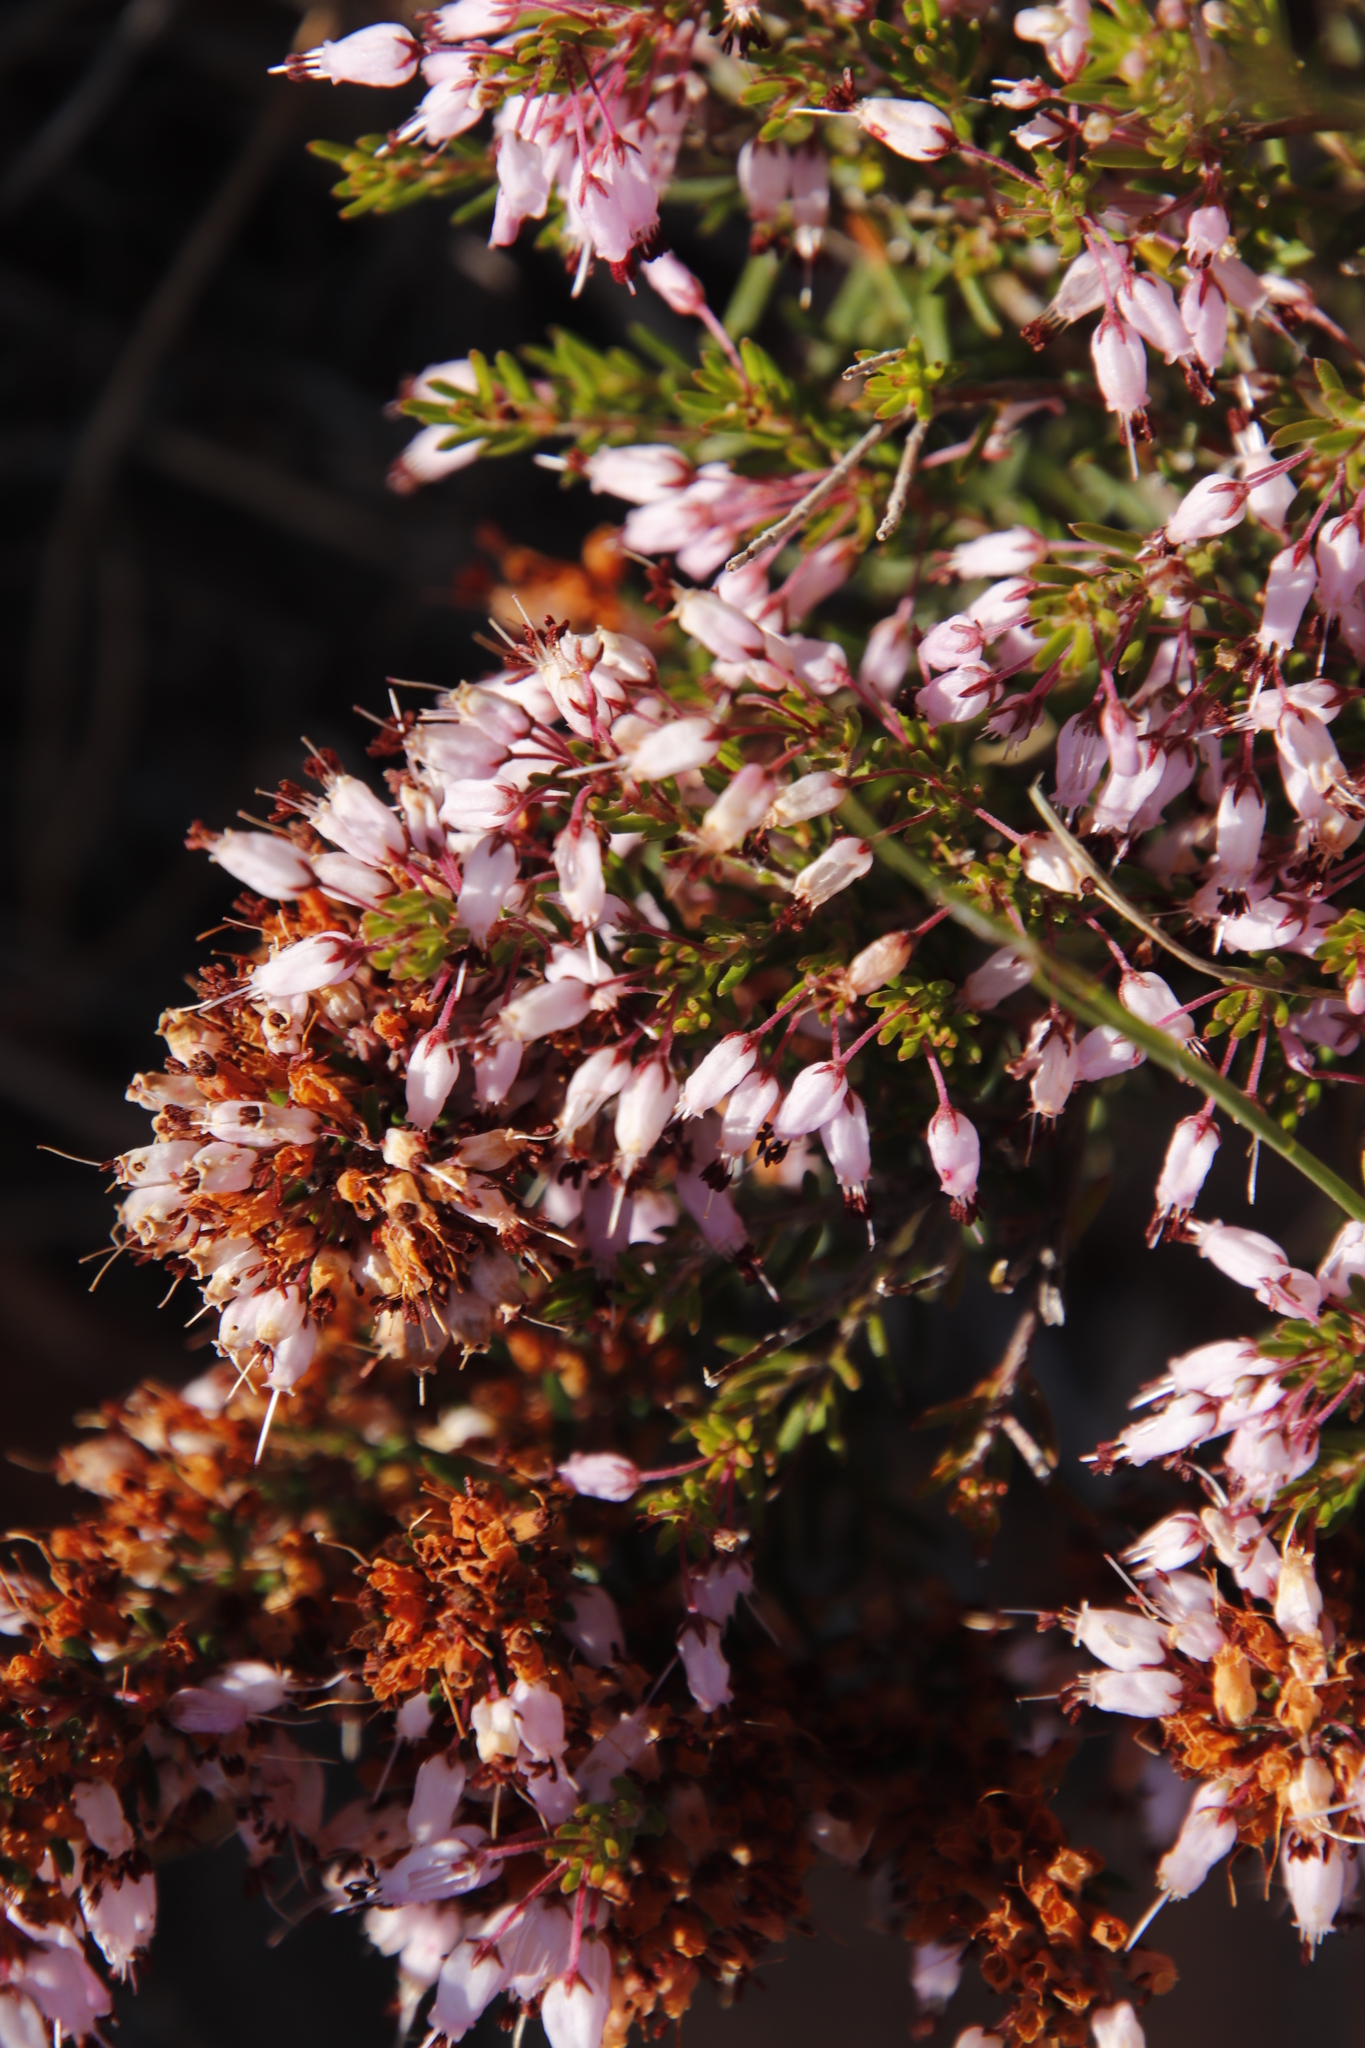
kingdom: Plantae
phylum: Tracheophyta
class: Magnoliopsida
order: Ericales
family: Ericaceae
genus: Erica
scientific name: Erica nudiflora
